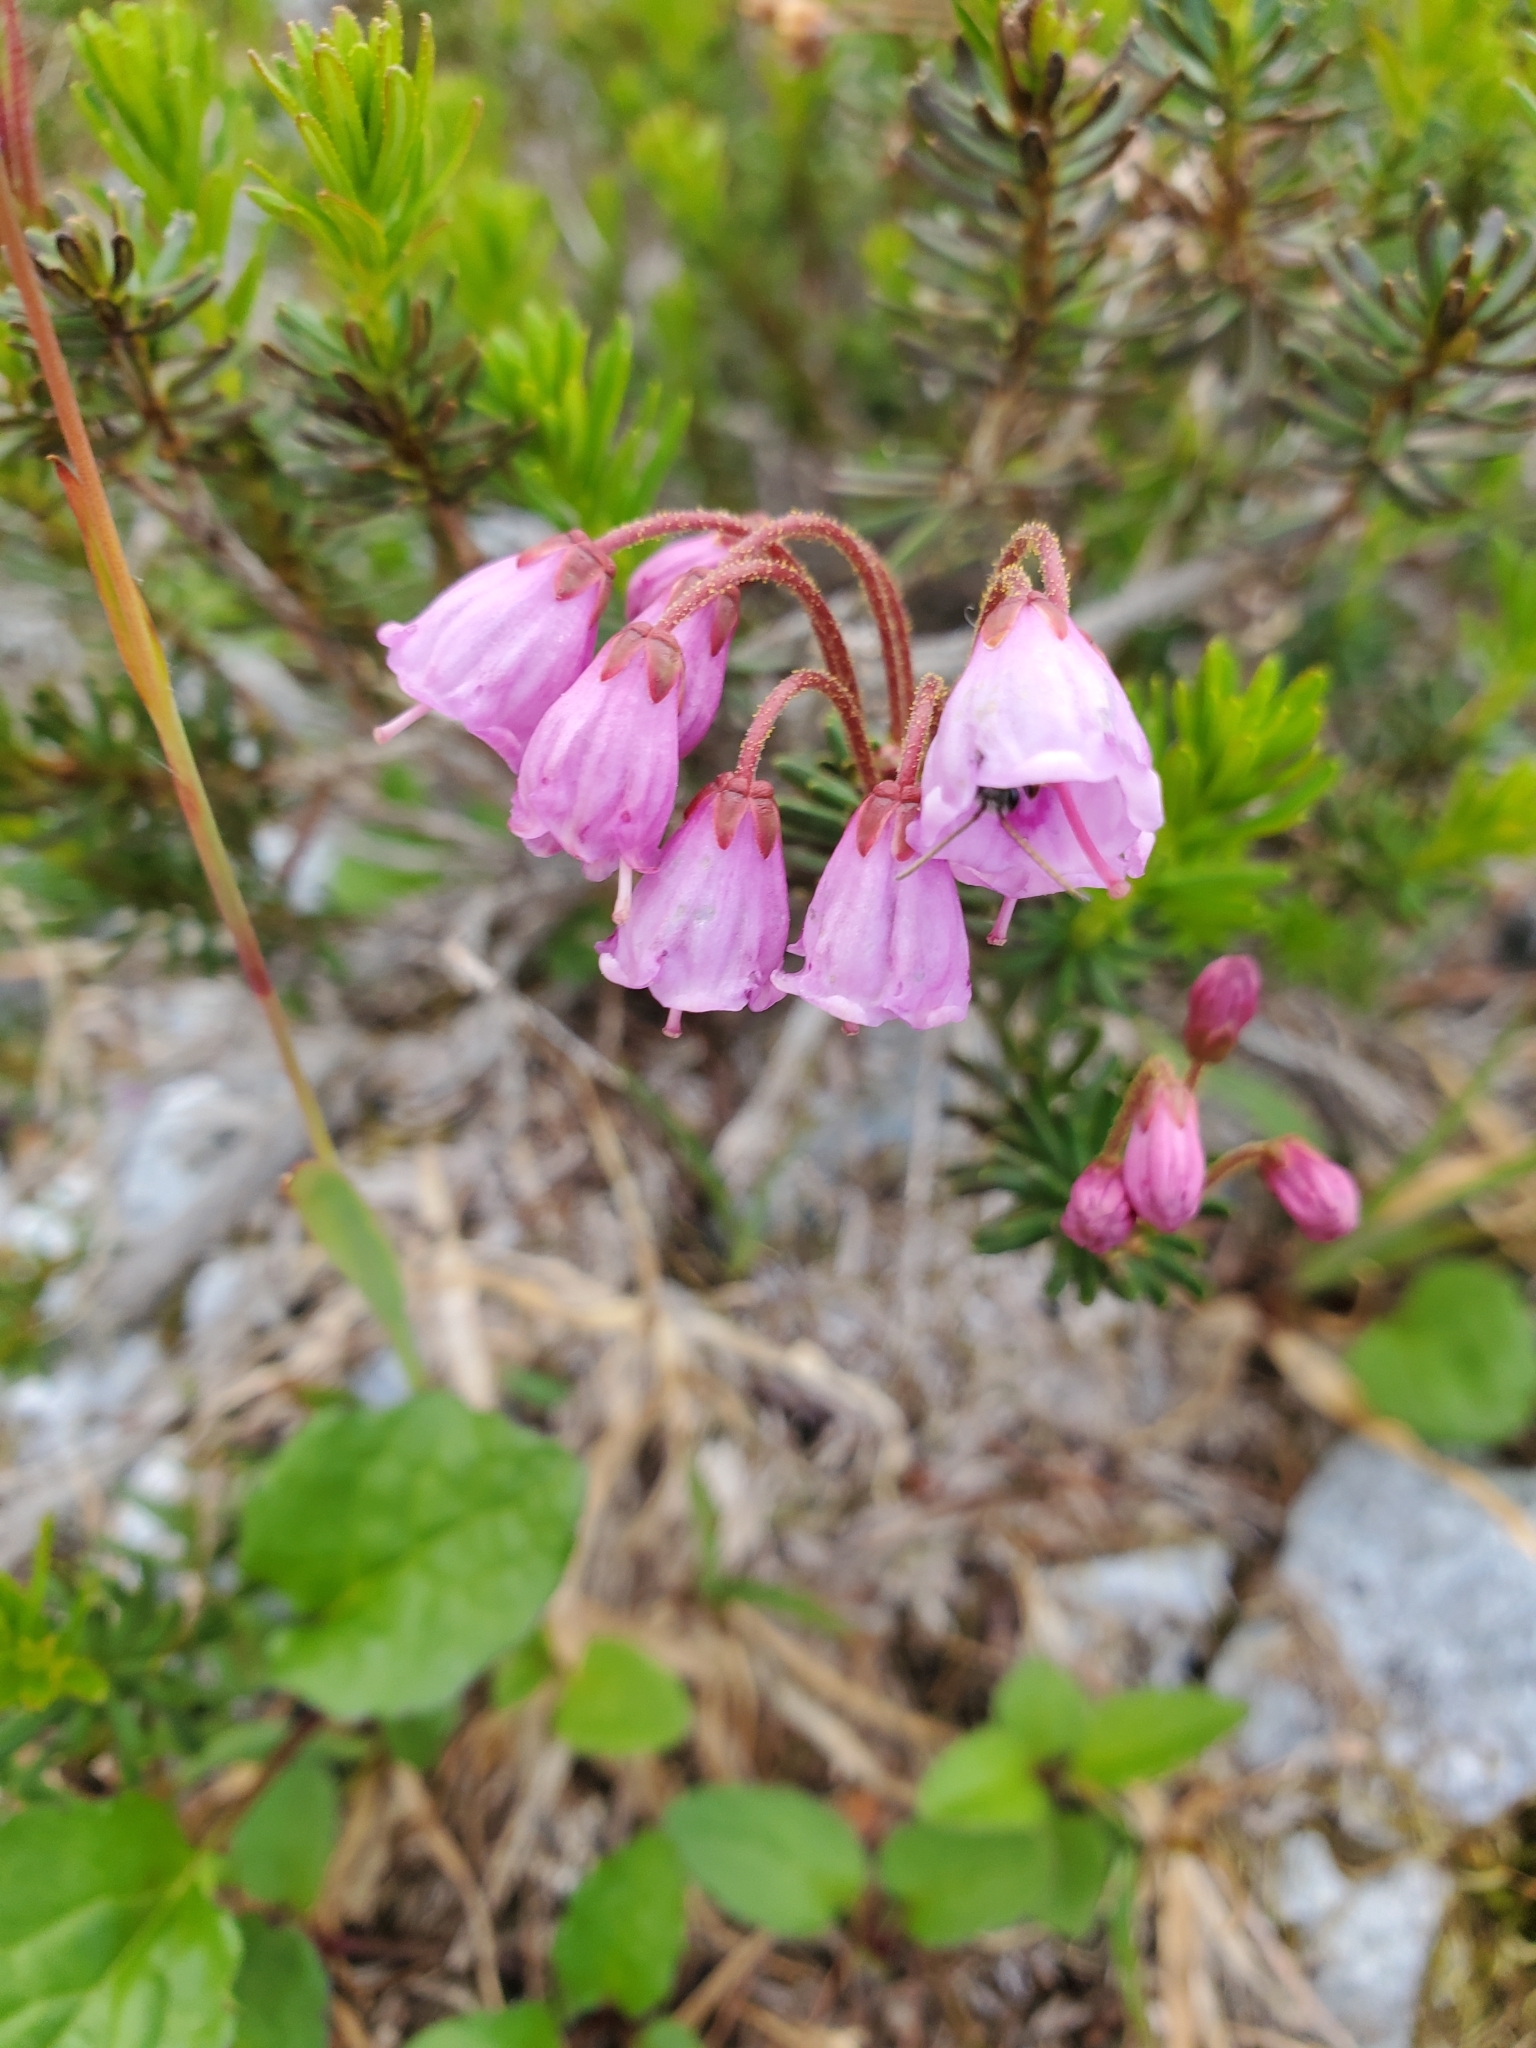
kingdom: Plantae
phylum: Tracheophyta
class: Magnoliopsida
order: Ericales
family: Ericaceae
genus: Phyllodoce
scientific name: Phyllodoce empetriformis
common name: Pink mountain heather
